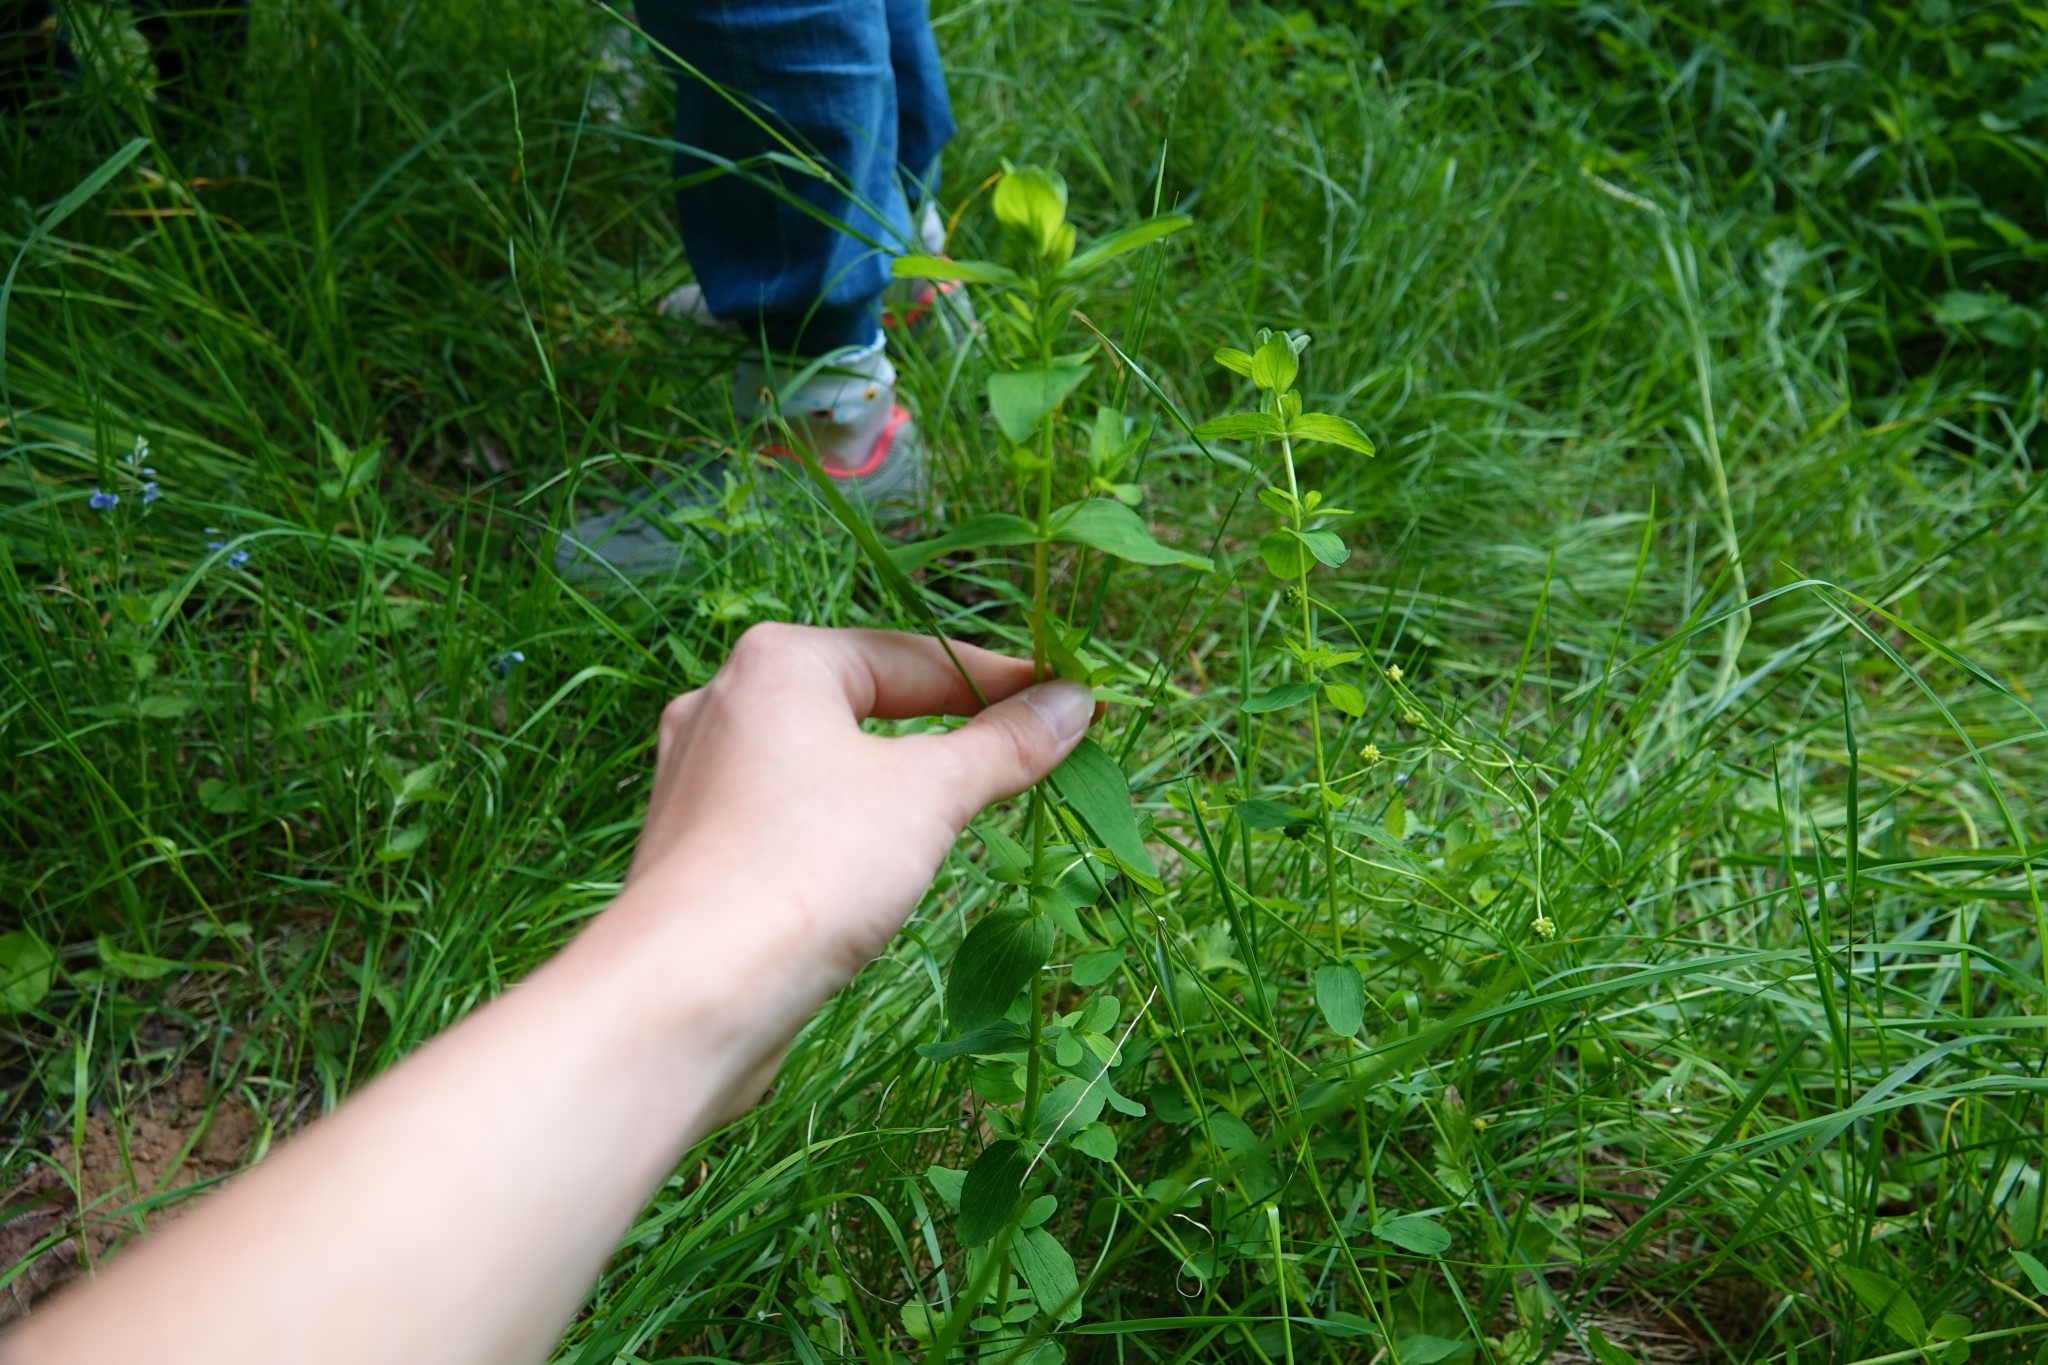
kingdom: Plantae
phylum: Tracheophyta
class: Magnoliopsida
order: Malpighiales
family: Hypericaceae
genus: Hypericum
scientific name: Hypericum maculatum
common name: Imperforate st. john's-wort
